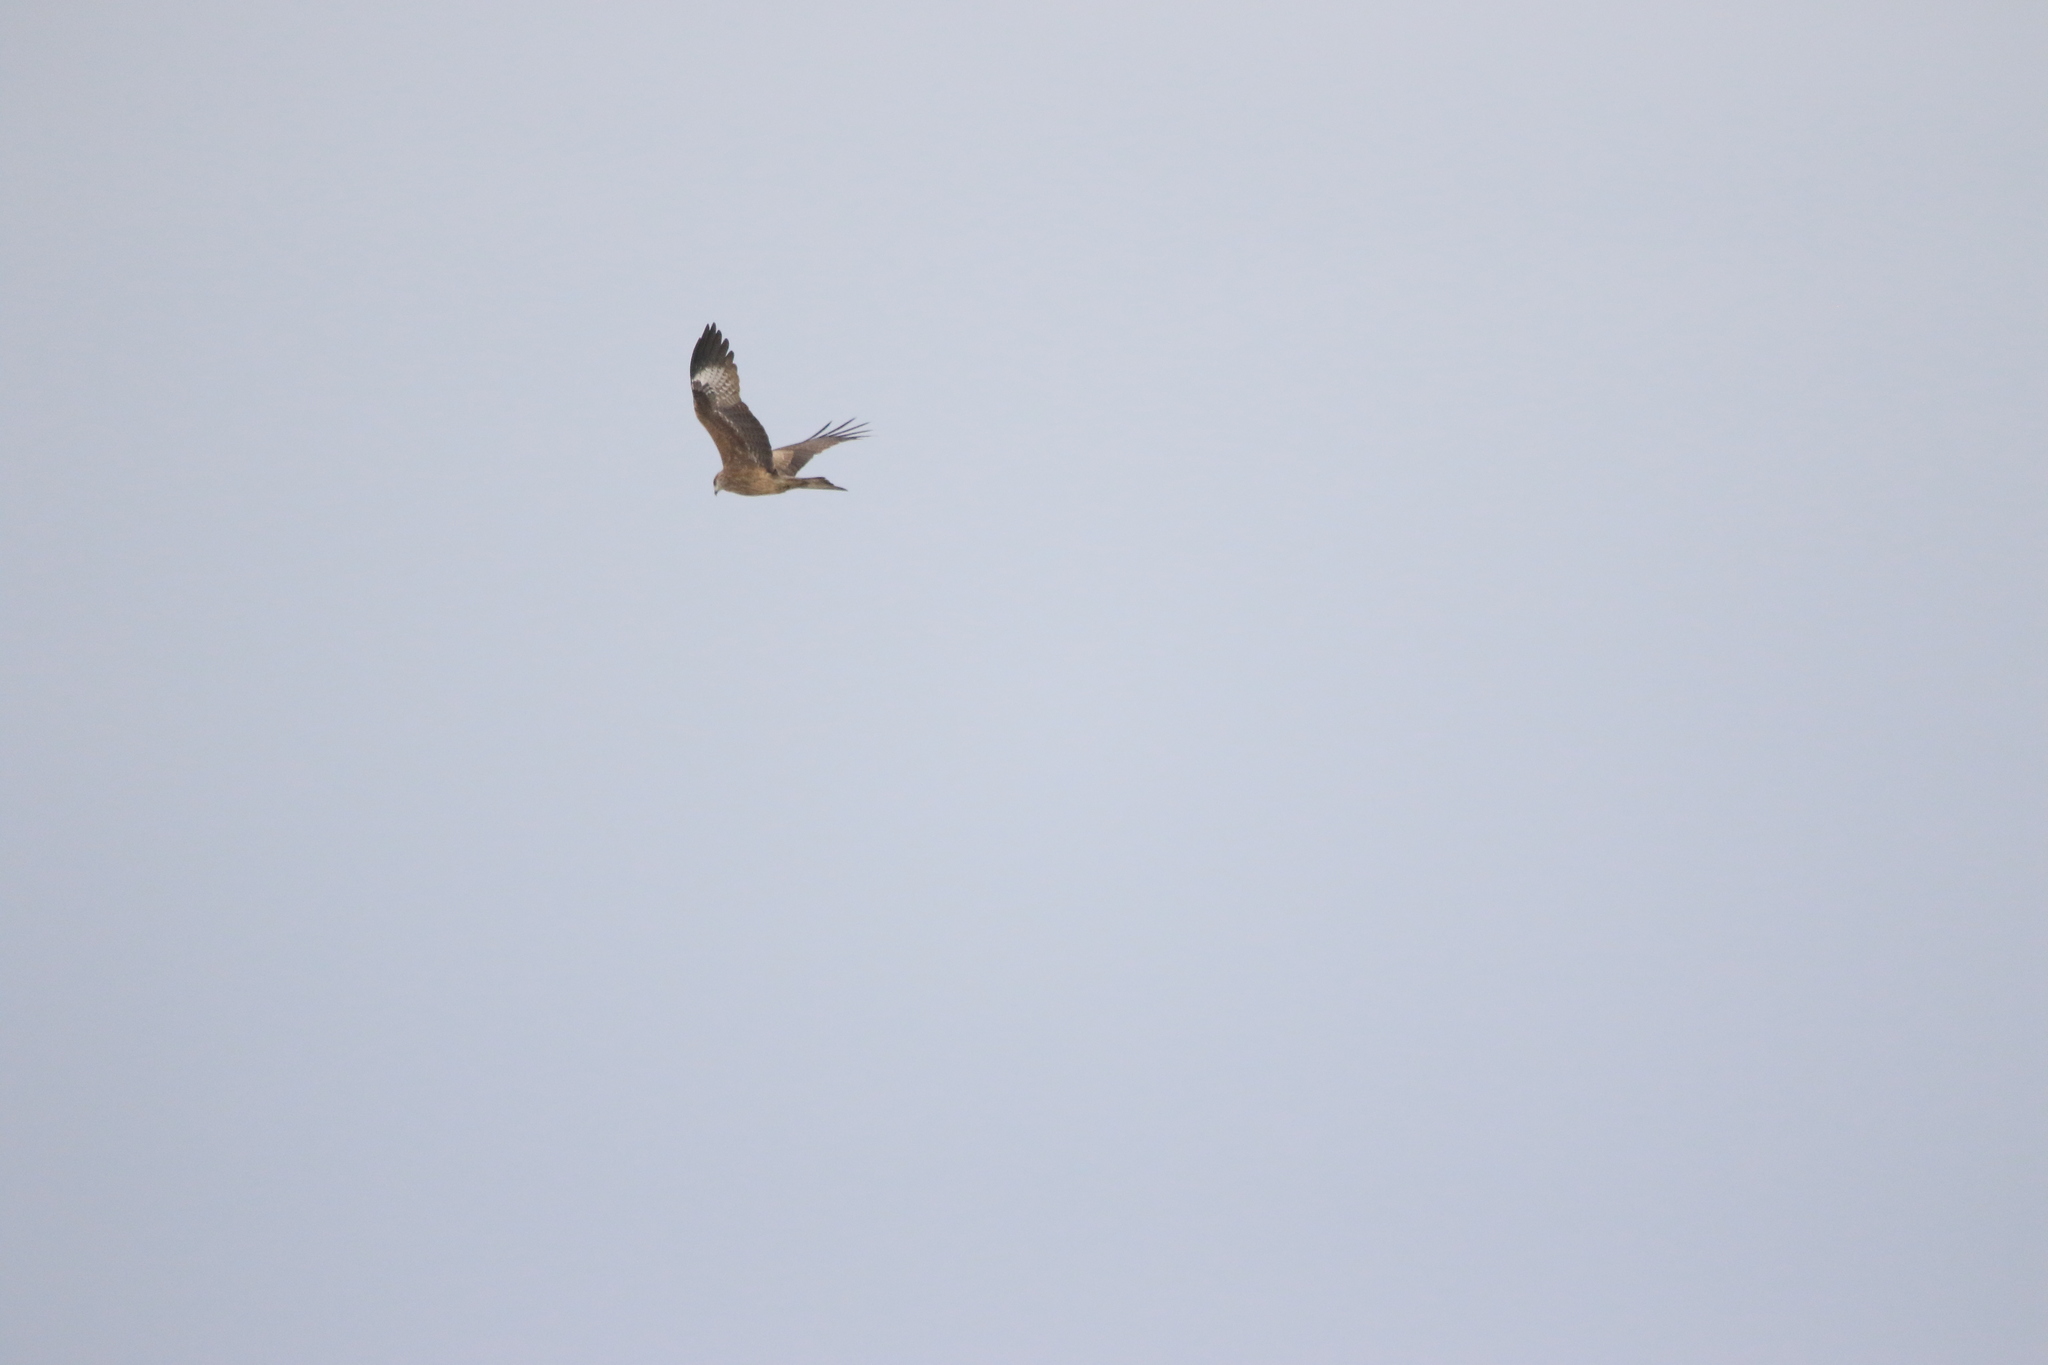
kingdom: Animalia
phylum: Chordata
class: Aves
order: Accipitriformes
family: Accipitridae
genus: Milvus
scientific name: Milvus migrans
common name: Black kite
